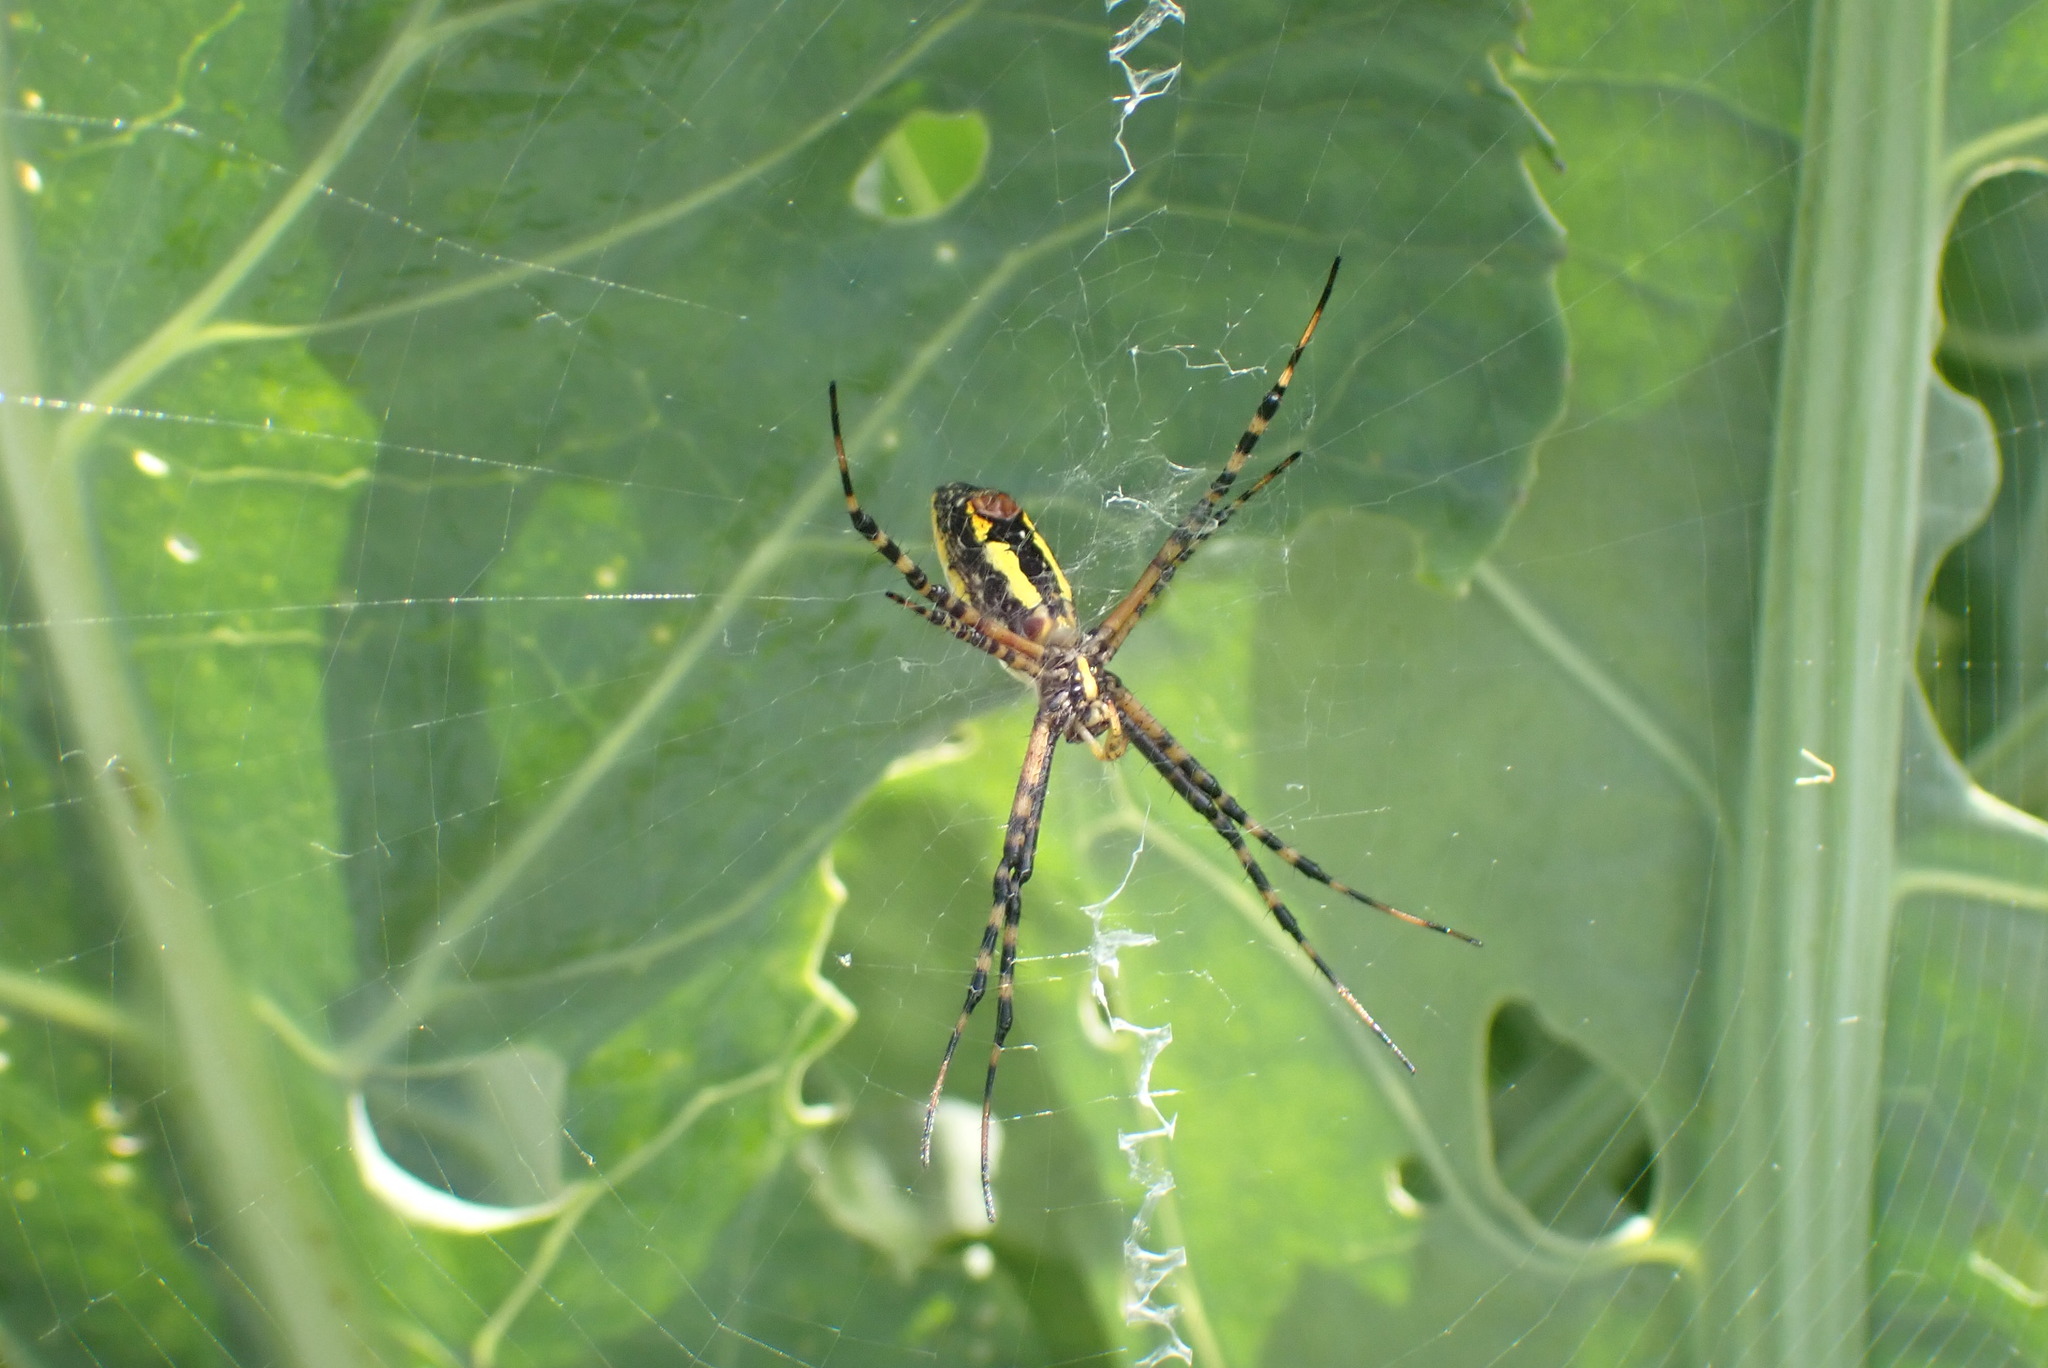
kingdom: Animalia
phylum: Arthropoda
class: Arachnida
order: Araneae
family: Araneidae
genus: Argiope
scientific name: Argiope trifasciata
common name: Banded garden spider
